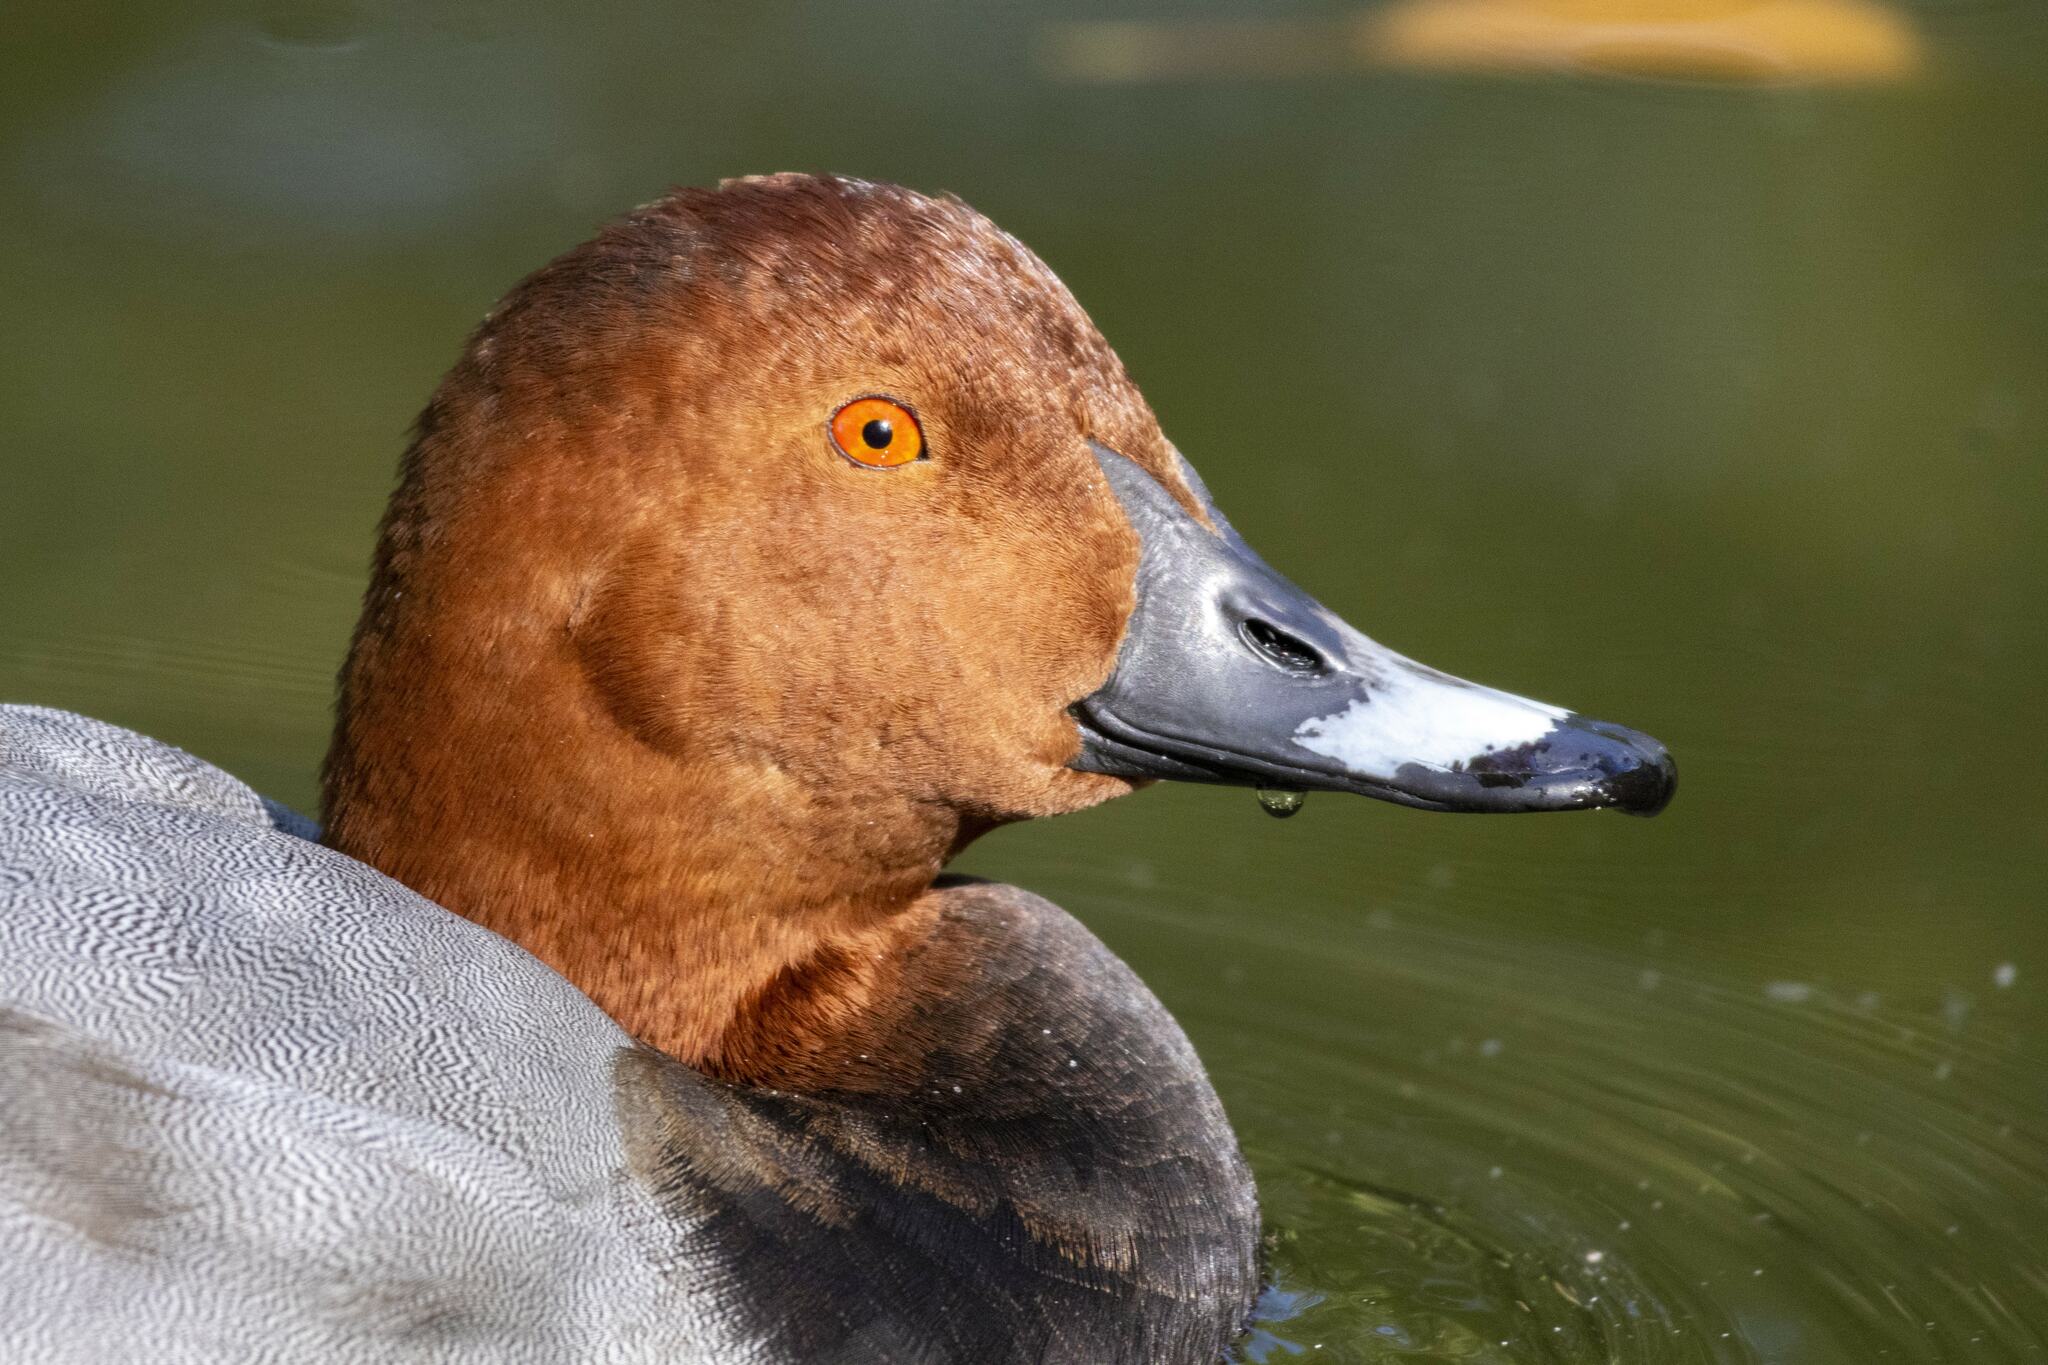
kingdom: Animalia
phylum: Chordata
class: Aves
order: Anseriformes
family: Anatidae
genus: Aythya
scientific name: Aythya ferina
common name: Common pochard
